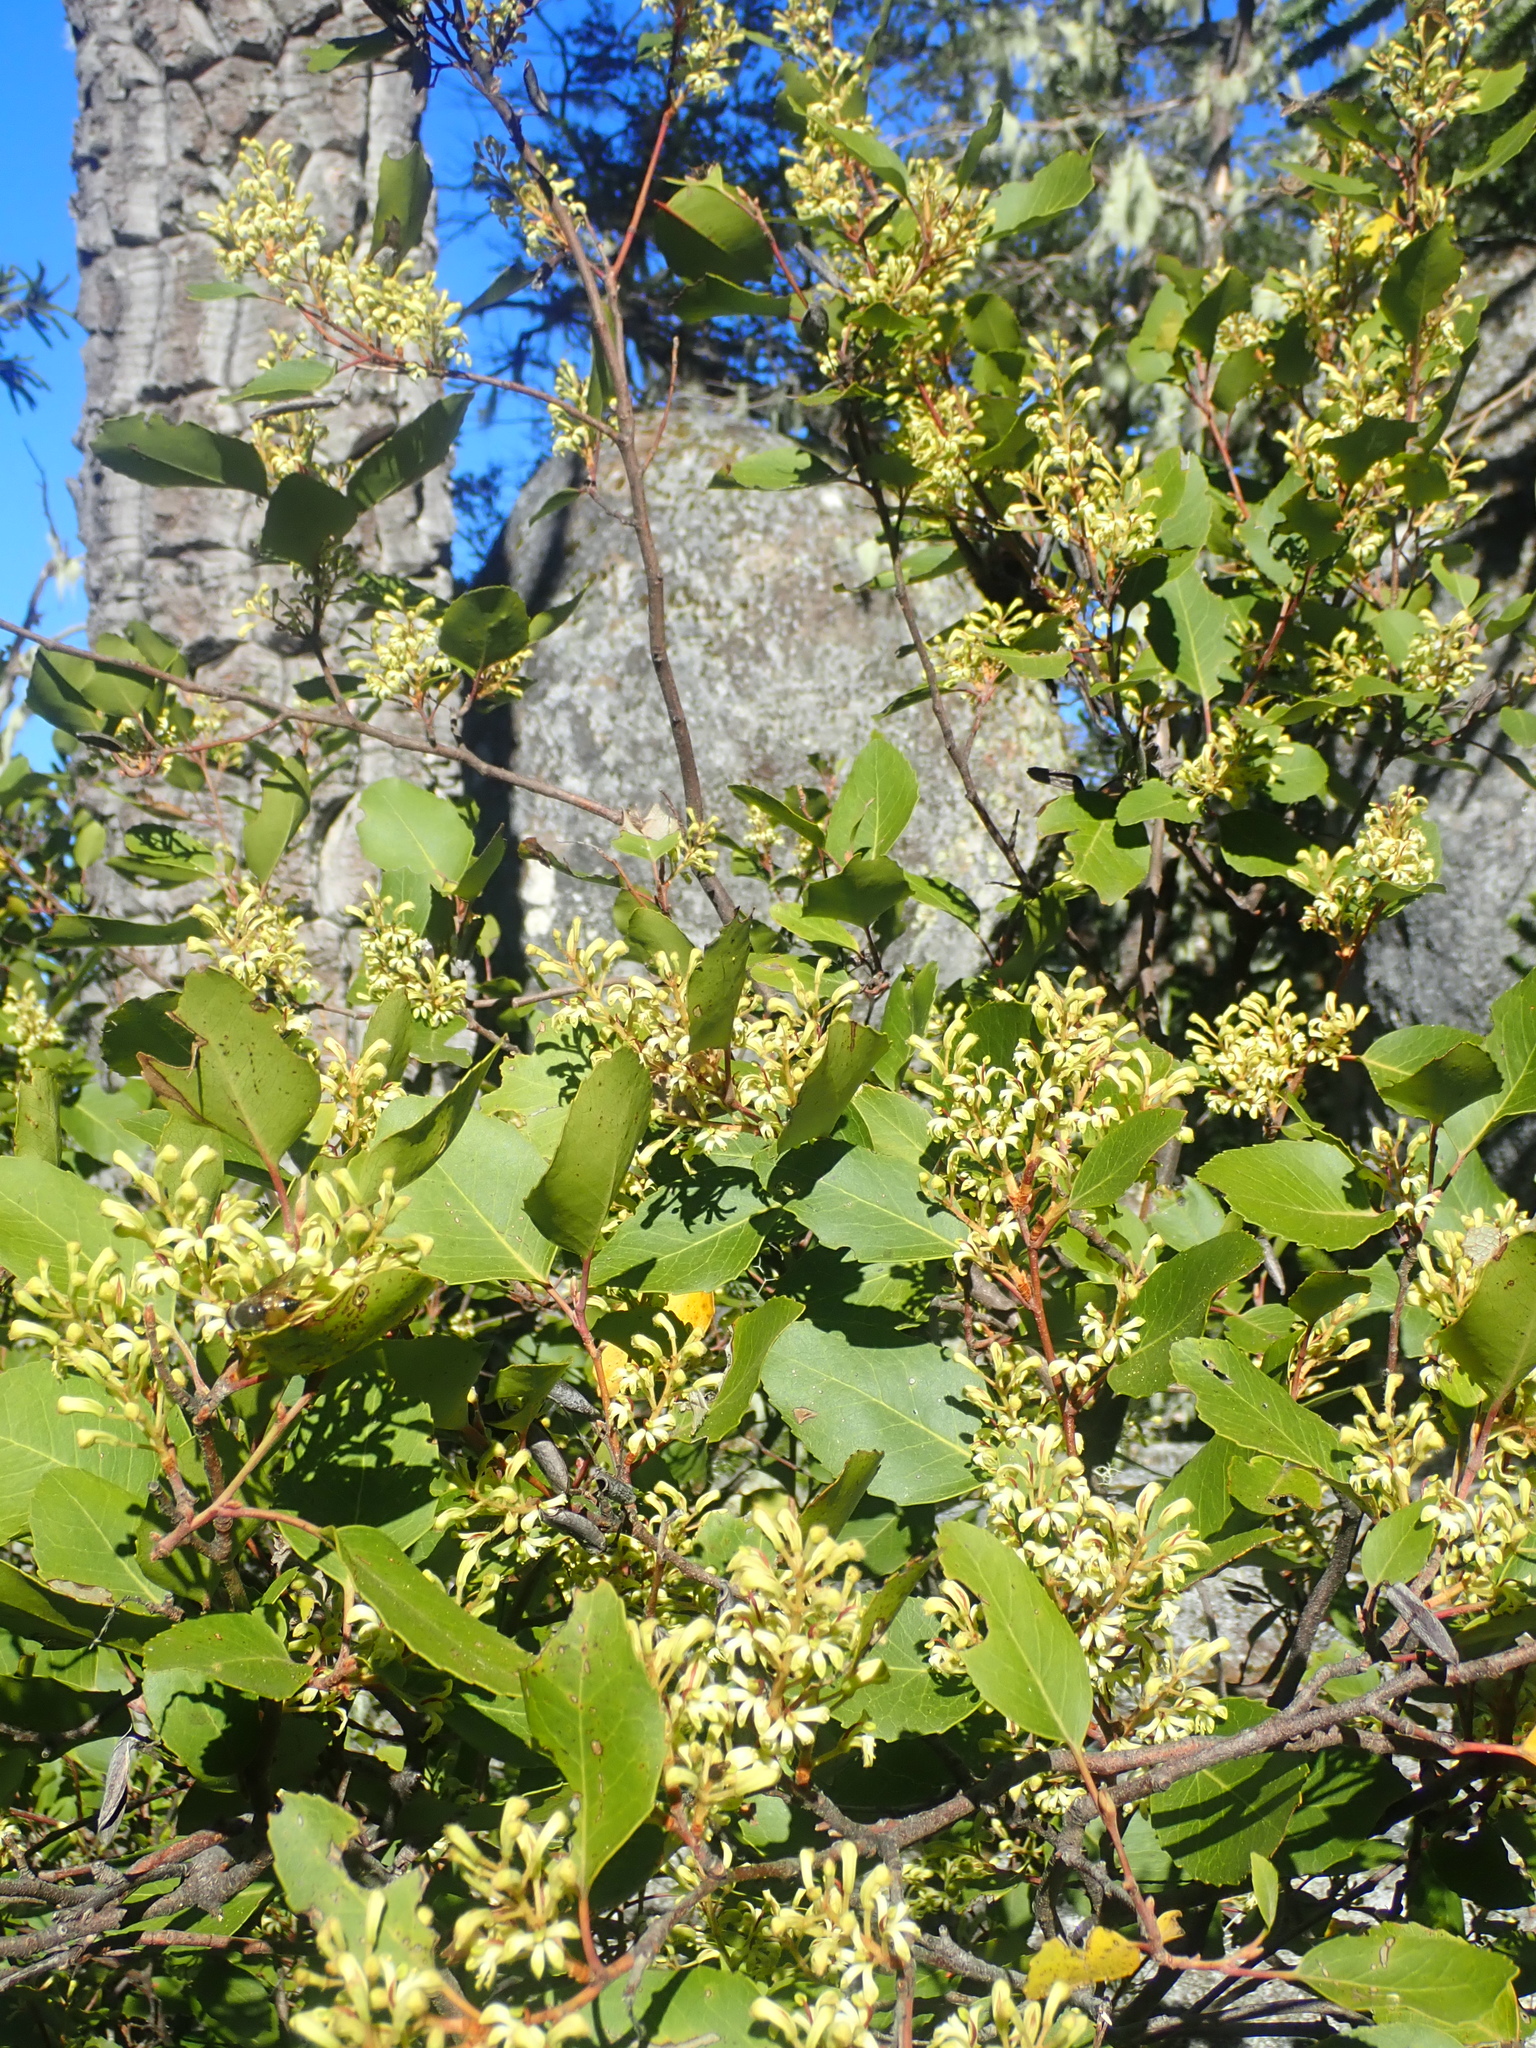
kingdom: Plantae
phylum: Tracheophyta
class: Magnoliopsida
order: Proteales
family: Proteaceae
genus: Lomatia
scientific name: Lomatia hirsuta
